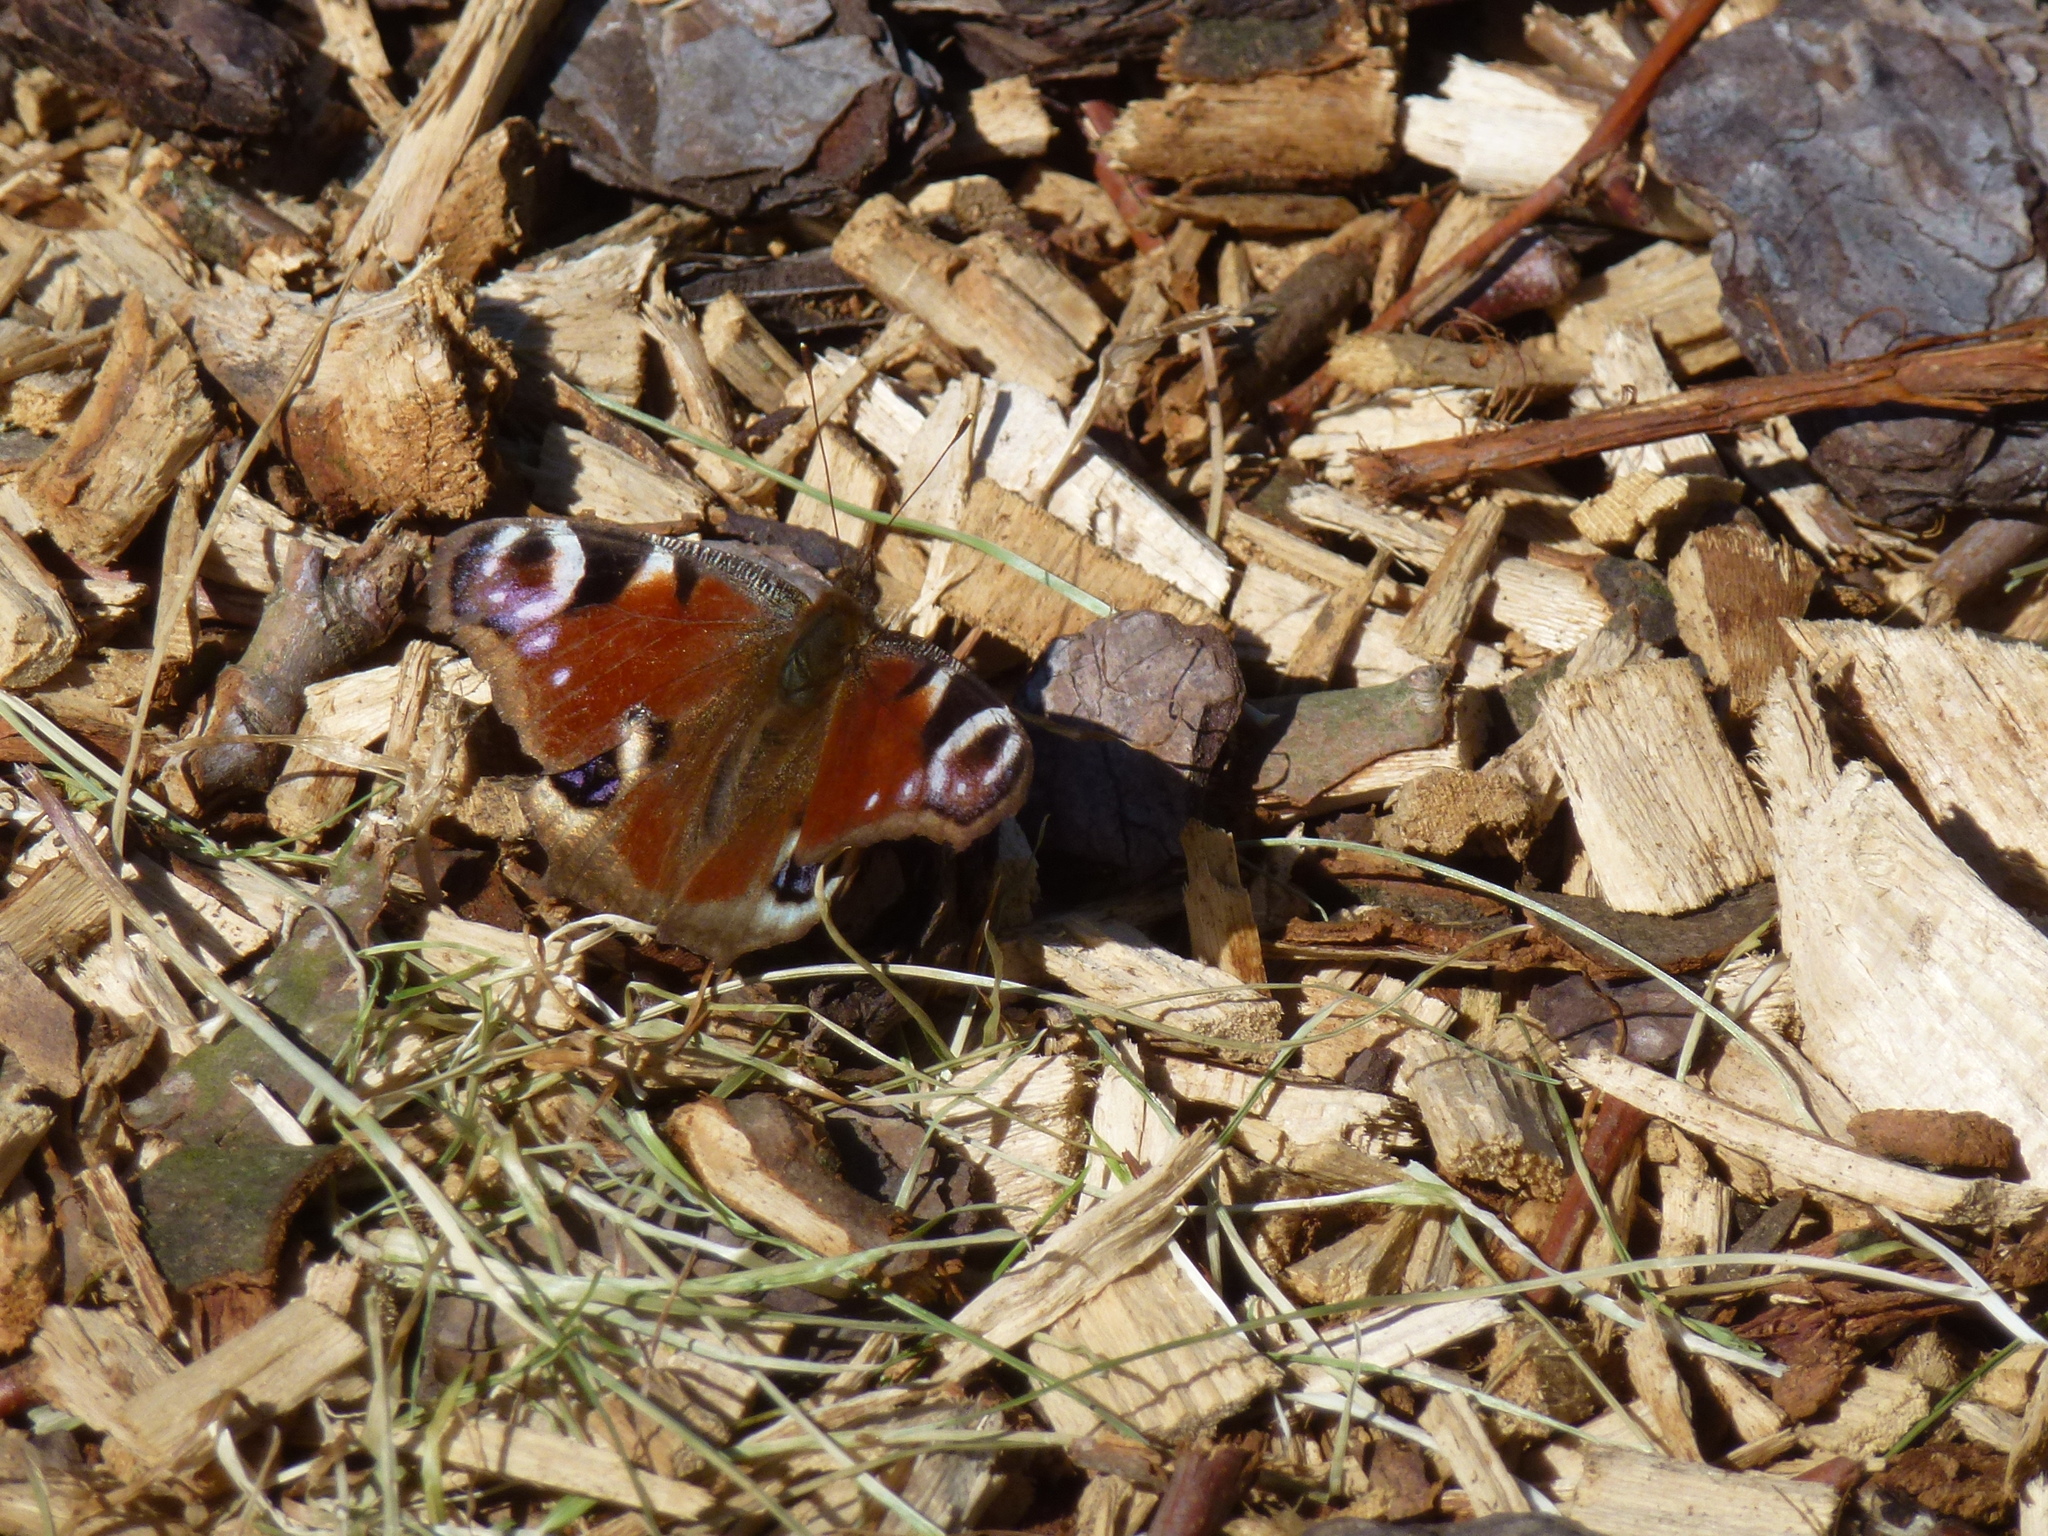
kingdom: Animalia
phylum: Arthropoda
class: Insecta
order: Lepidoptera
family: Nymphalidae
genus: Aglais
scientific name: Aglais io
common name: Peacock
